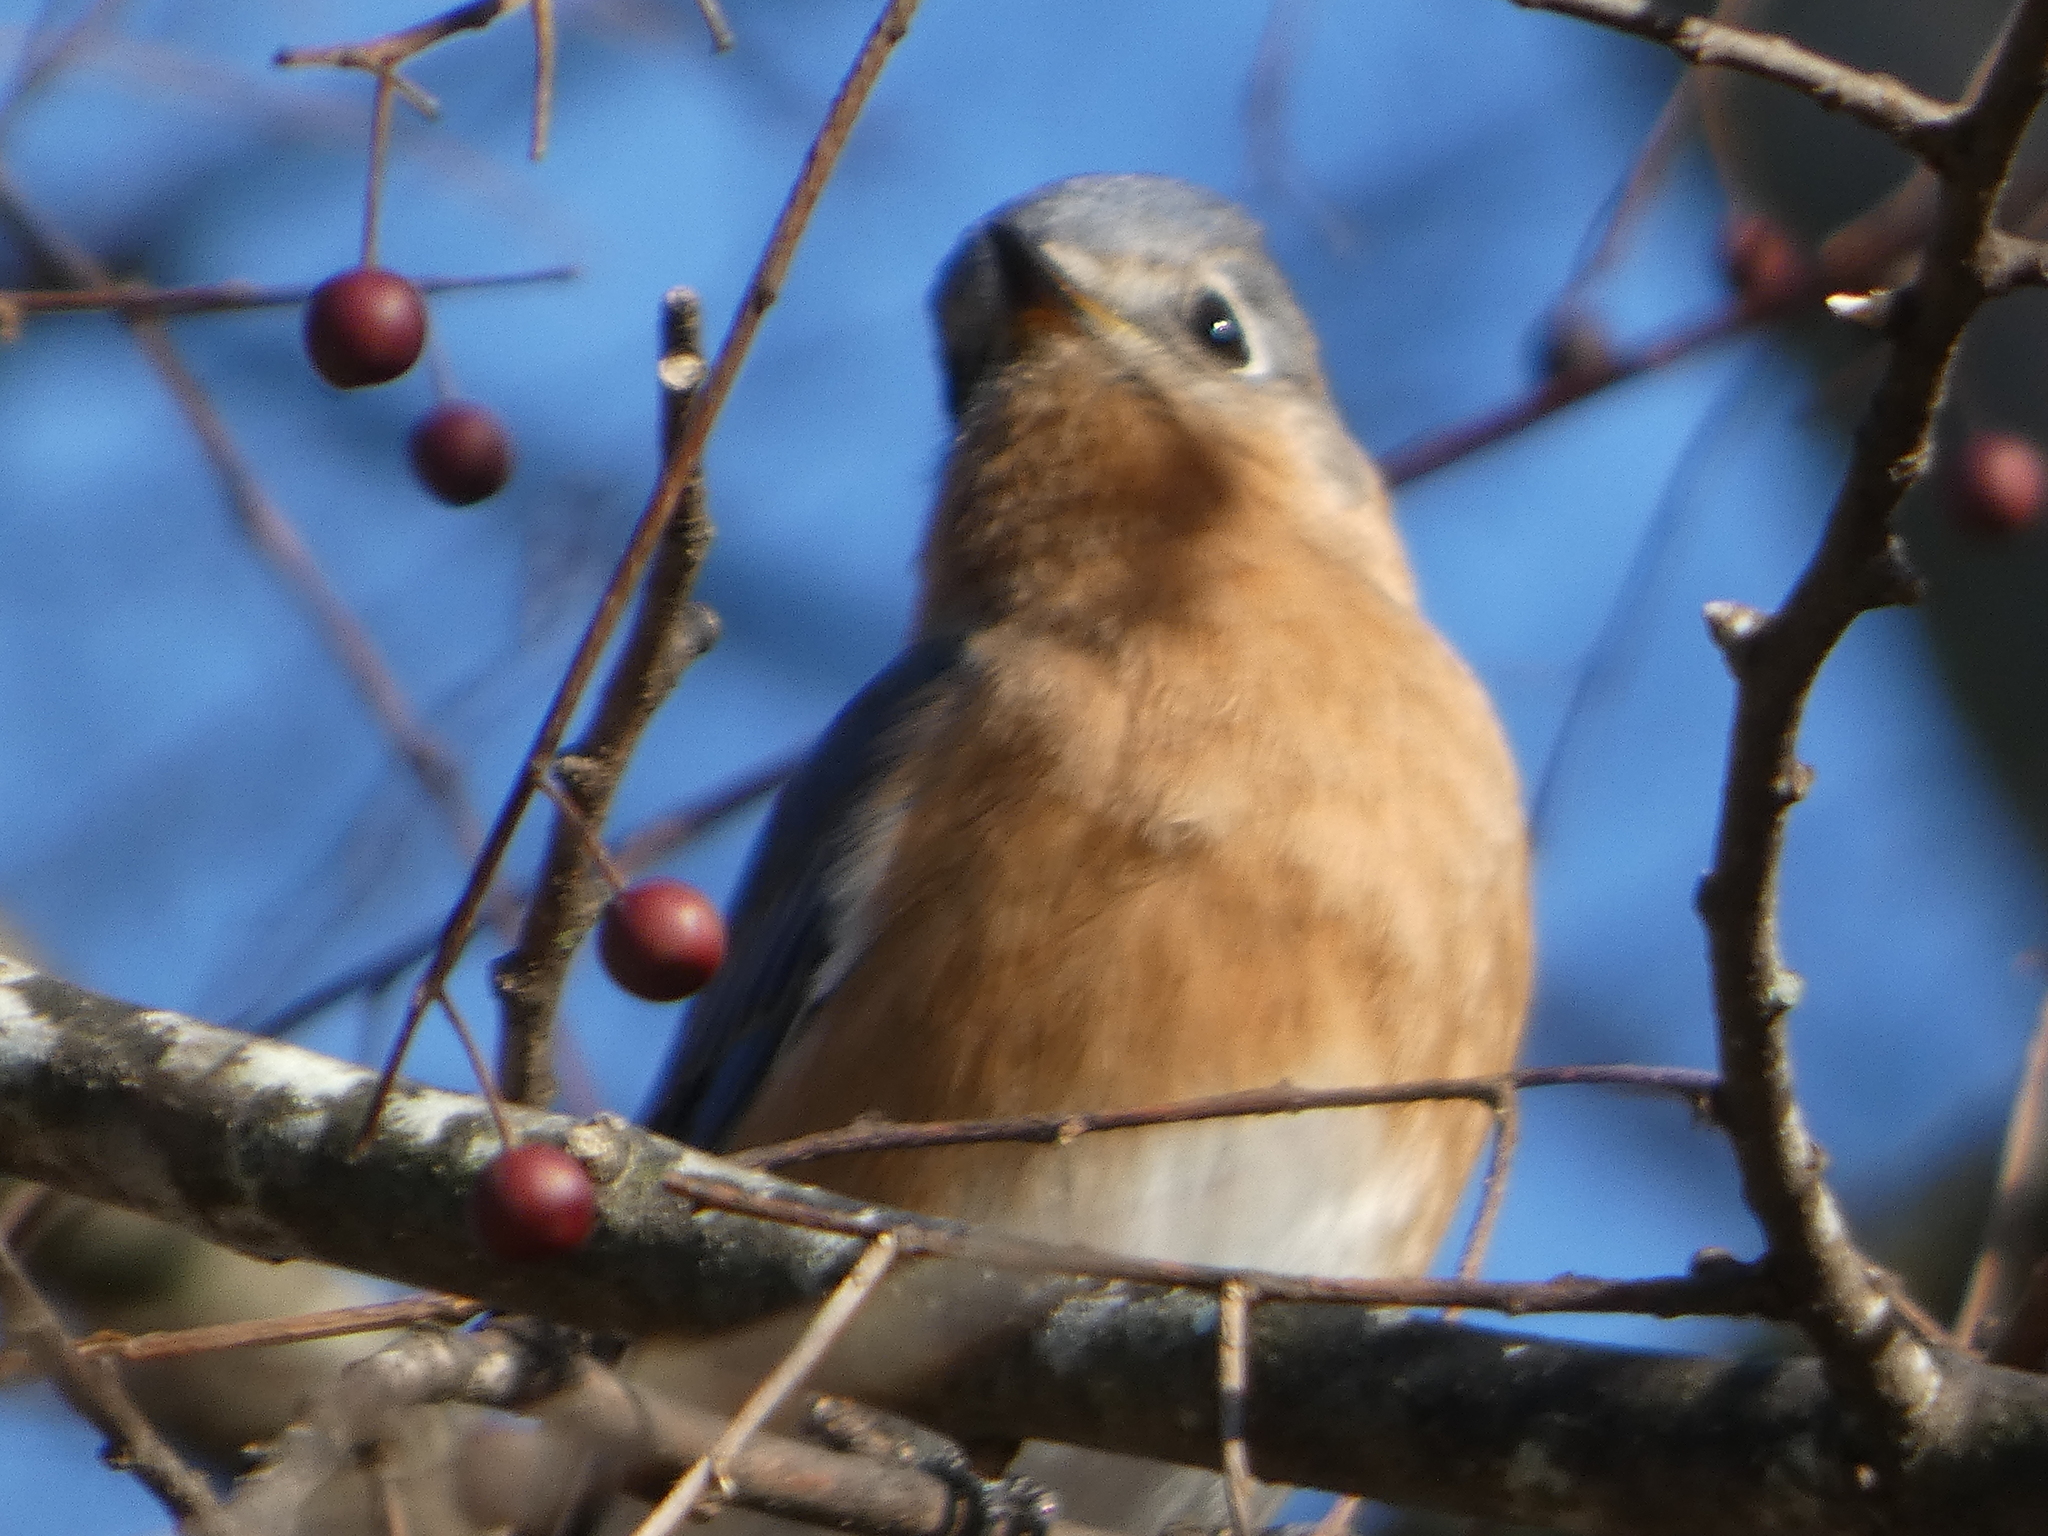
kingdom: Animalia
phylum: Chordata
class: Aves
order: Passeriformes
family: Turdidae
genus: Sialia
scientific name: Sialia sialis
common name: Eastern bluebird
